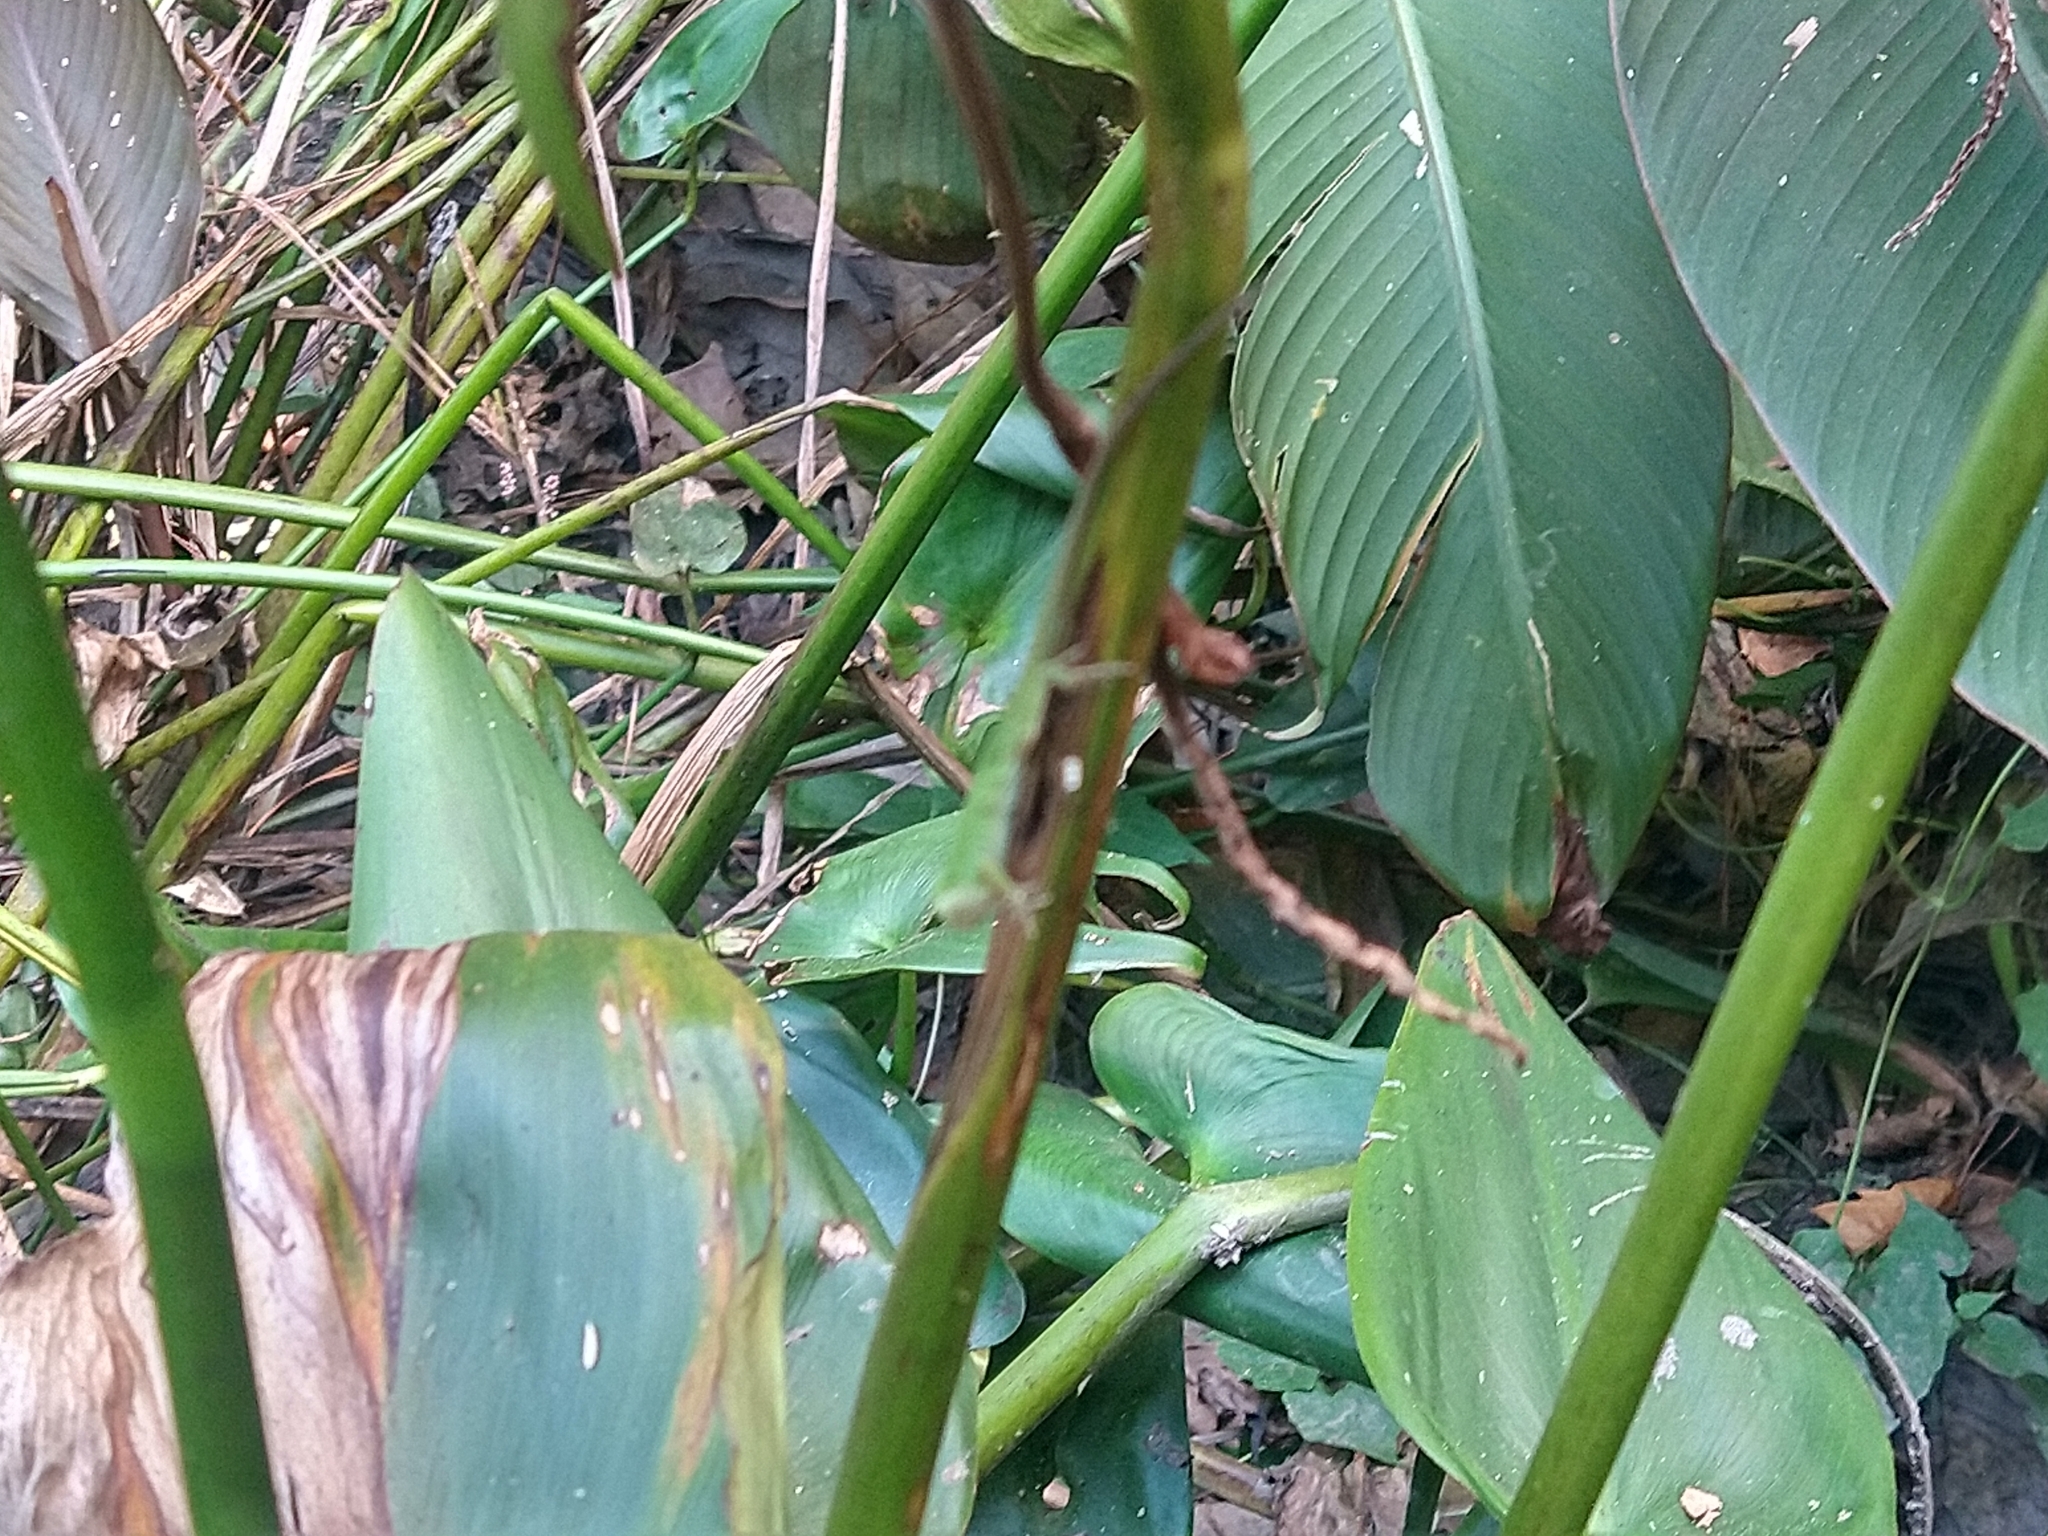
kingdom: Animalia
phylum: Chordata
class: Squamata
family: Dactyloidae
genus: Anolis
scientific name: Anolis carolinensis
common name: Green anole
